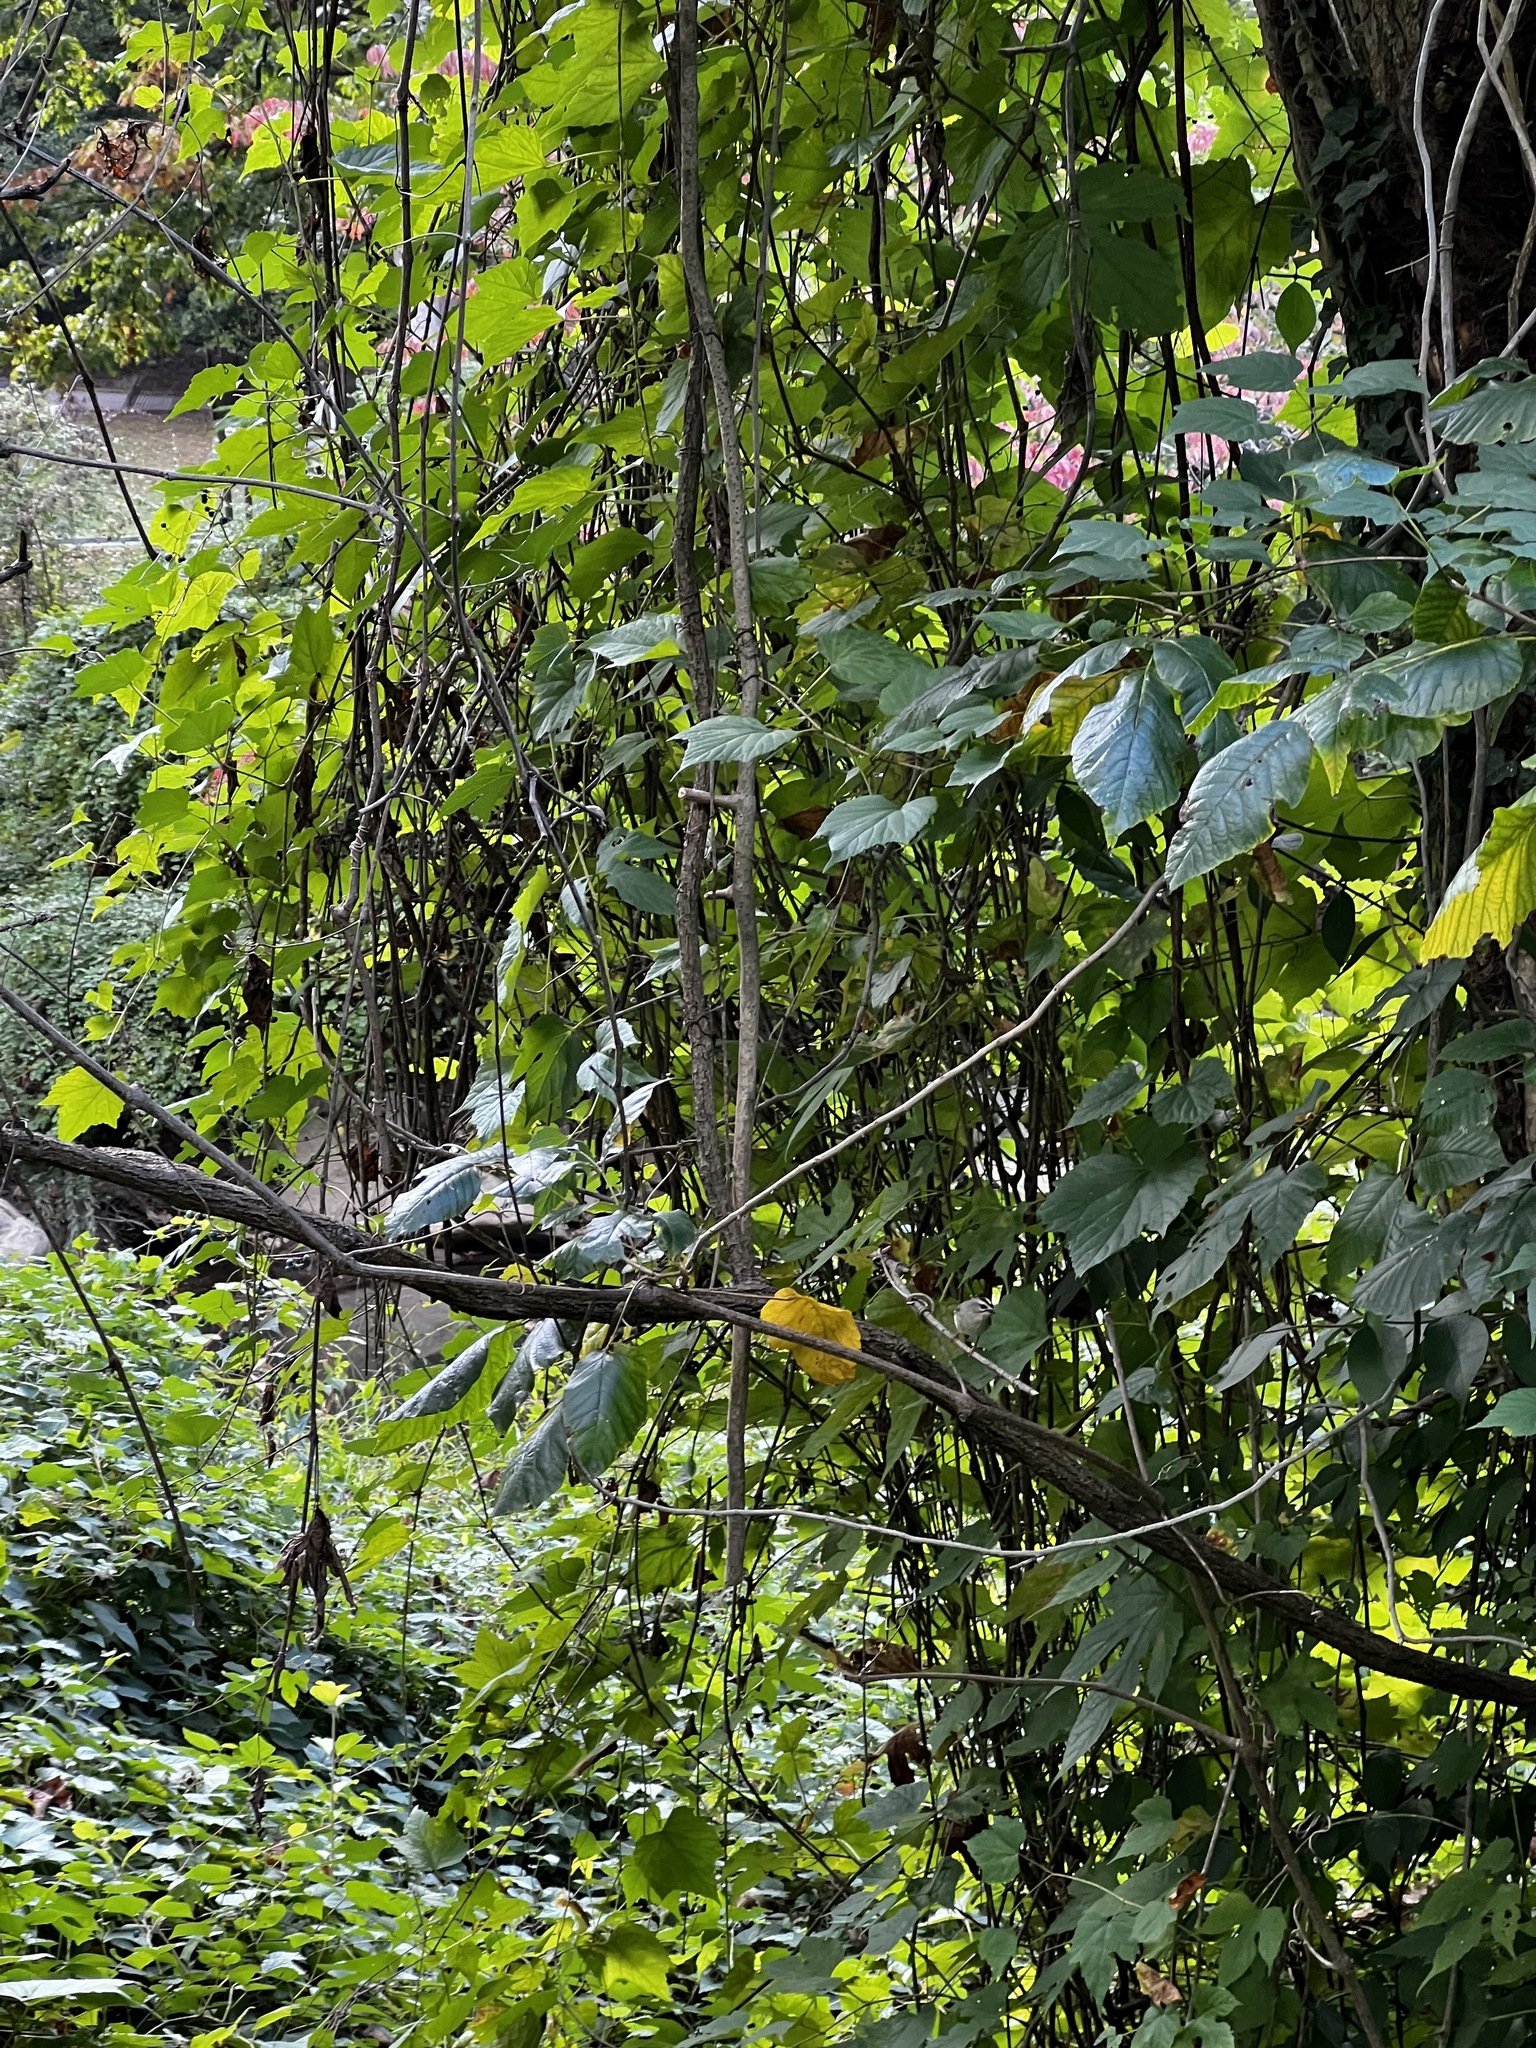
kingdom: Animalia
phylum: Chordata
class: Aves
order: Passeriformes
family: Regulidae
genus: Regulus
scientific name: Regulus satrapa
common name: Golden-crowned kinglet
